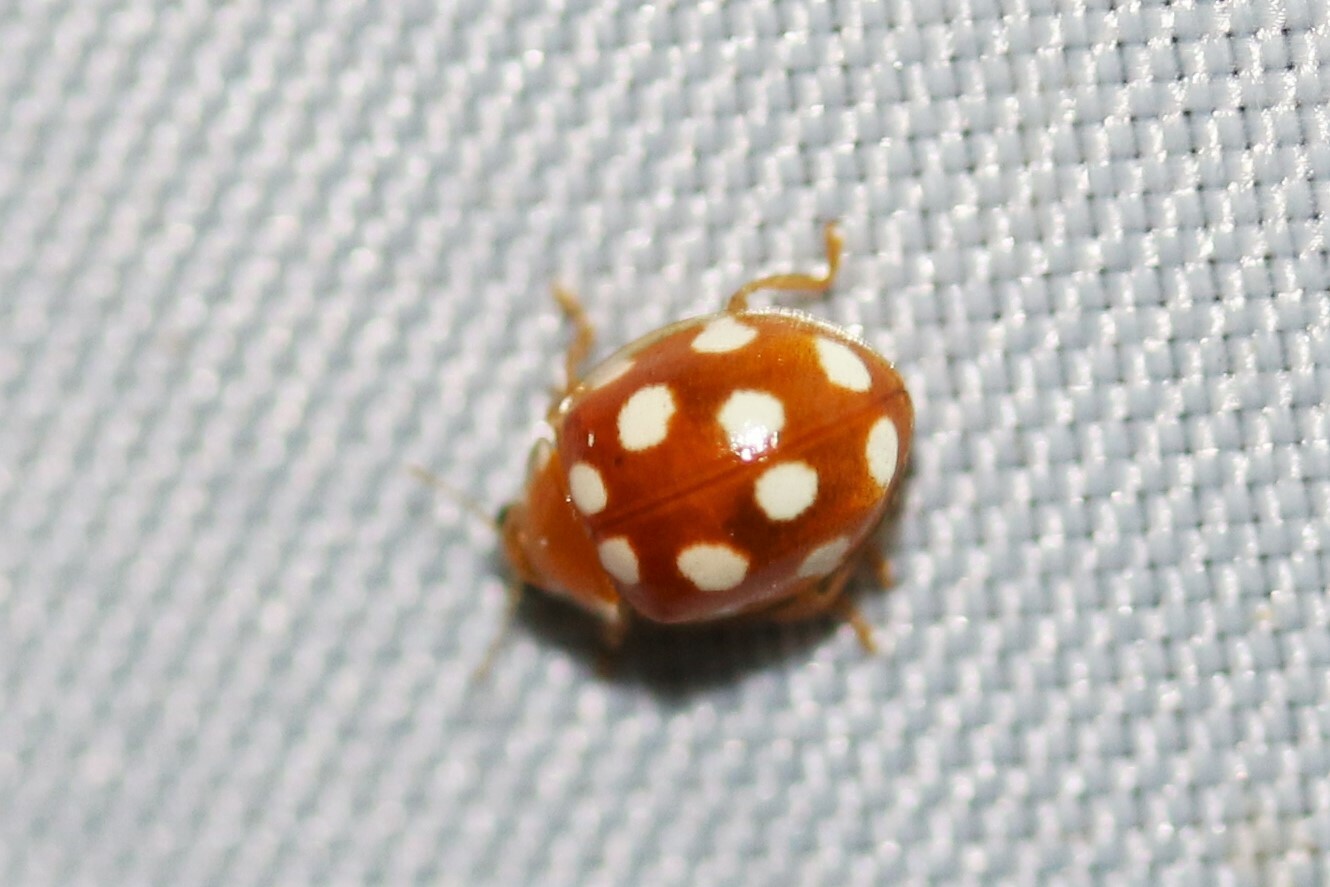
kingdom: Animalia
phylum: Arthropoda
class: Insecta
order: Coleoptera
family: Coccinellidae
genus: Vibidia
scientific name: Vibidia duodecimguttata
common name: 12-spot ladybird
